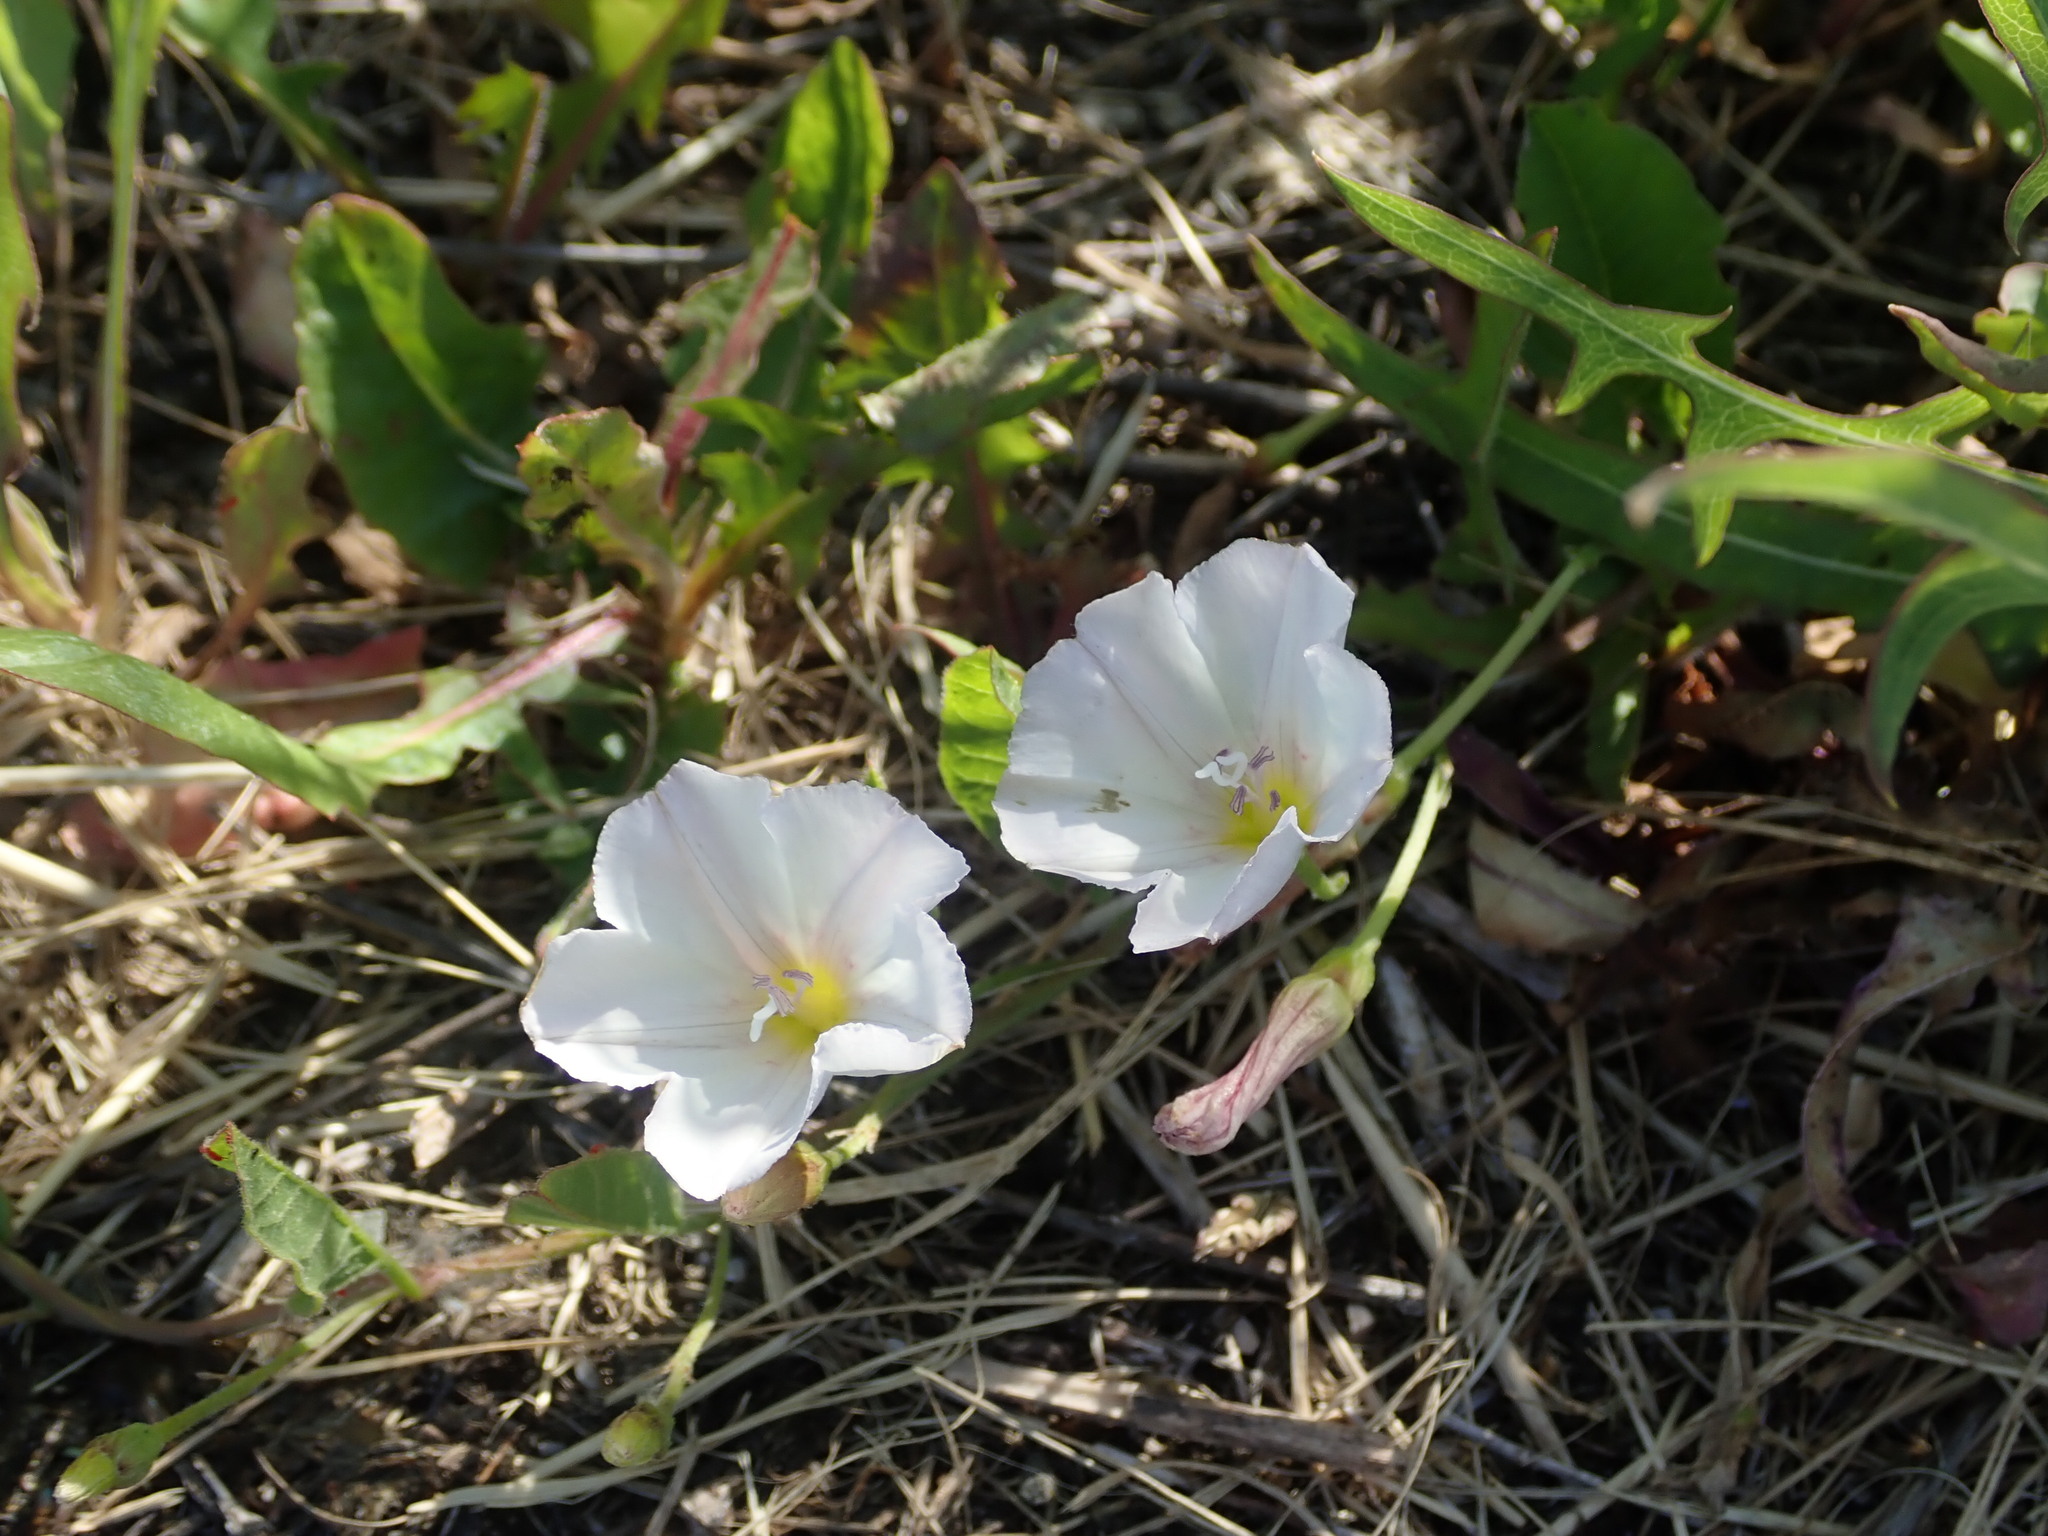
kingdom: Plantae
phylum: Tracheophyta
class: Magnoliopsida
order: Solanales
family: Convolvulaceae
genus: Convolvulus
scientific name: Convolvulus arvensis
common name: Field bindweed
